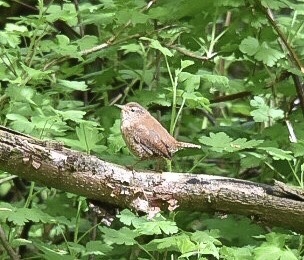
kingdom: Animalia
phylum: Chordata
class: Aves
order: Passeriformes
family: Troglodytidae
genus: Troglodytes
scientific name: Troglodytes troglodytes
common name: Eurasian wren
